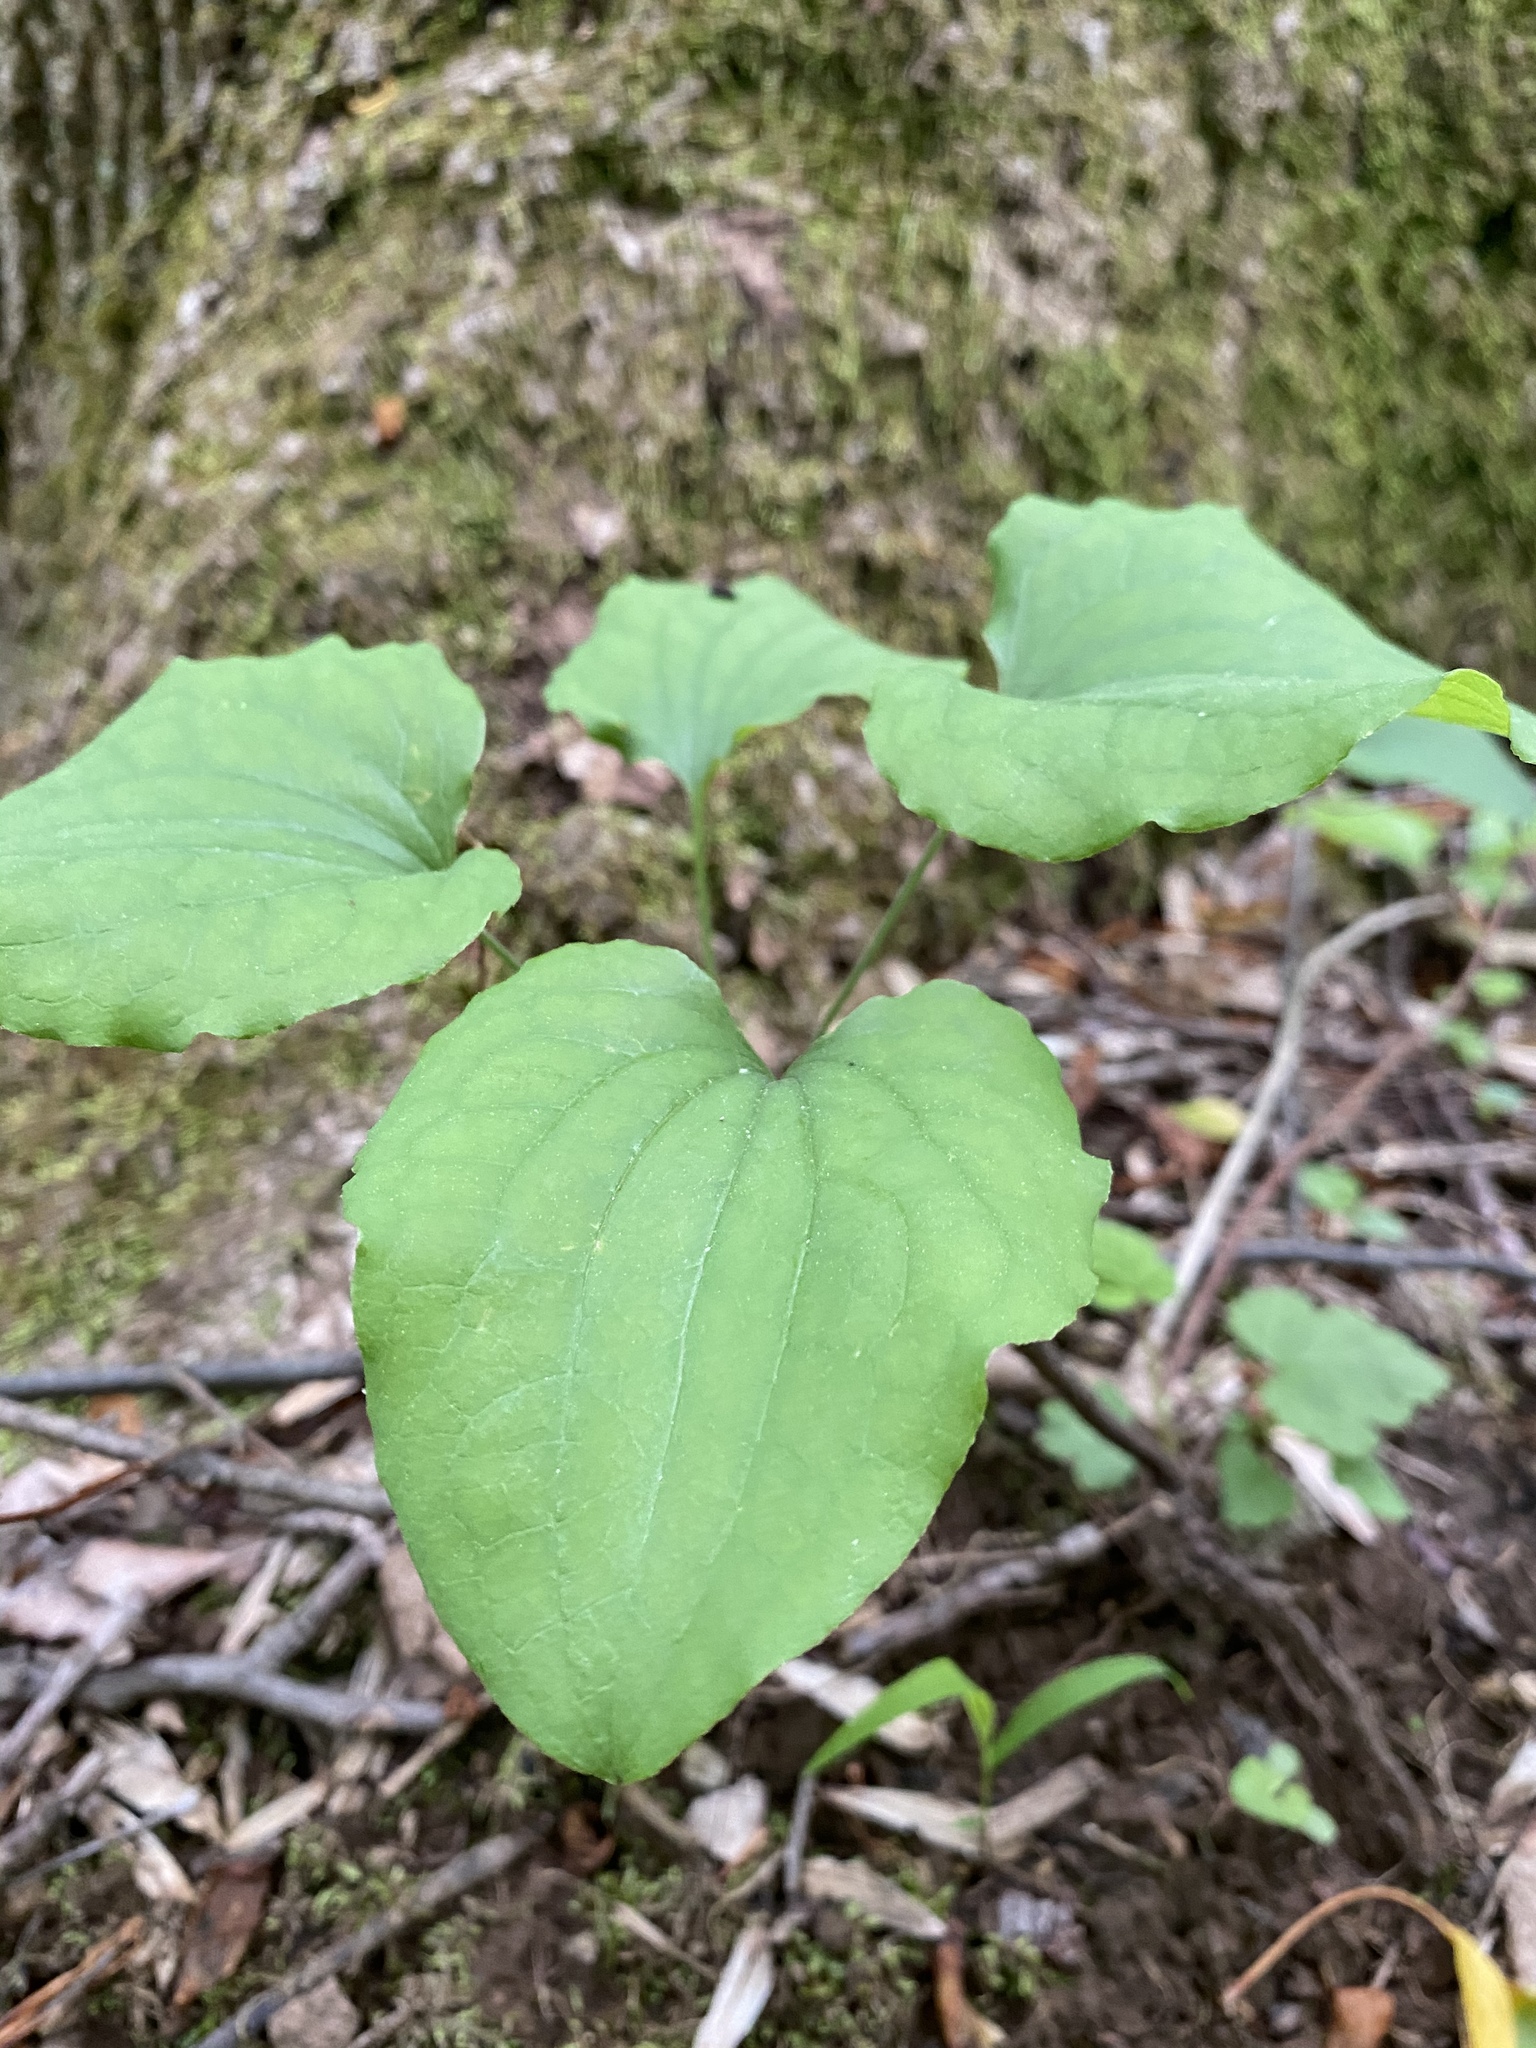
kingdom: Plantae
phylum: Tracheophyta
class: Liliopsida
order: Liliales
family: Smilacaceae
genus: Smilax
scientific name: Smilax herbacea
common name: Jacob's-ladder
